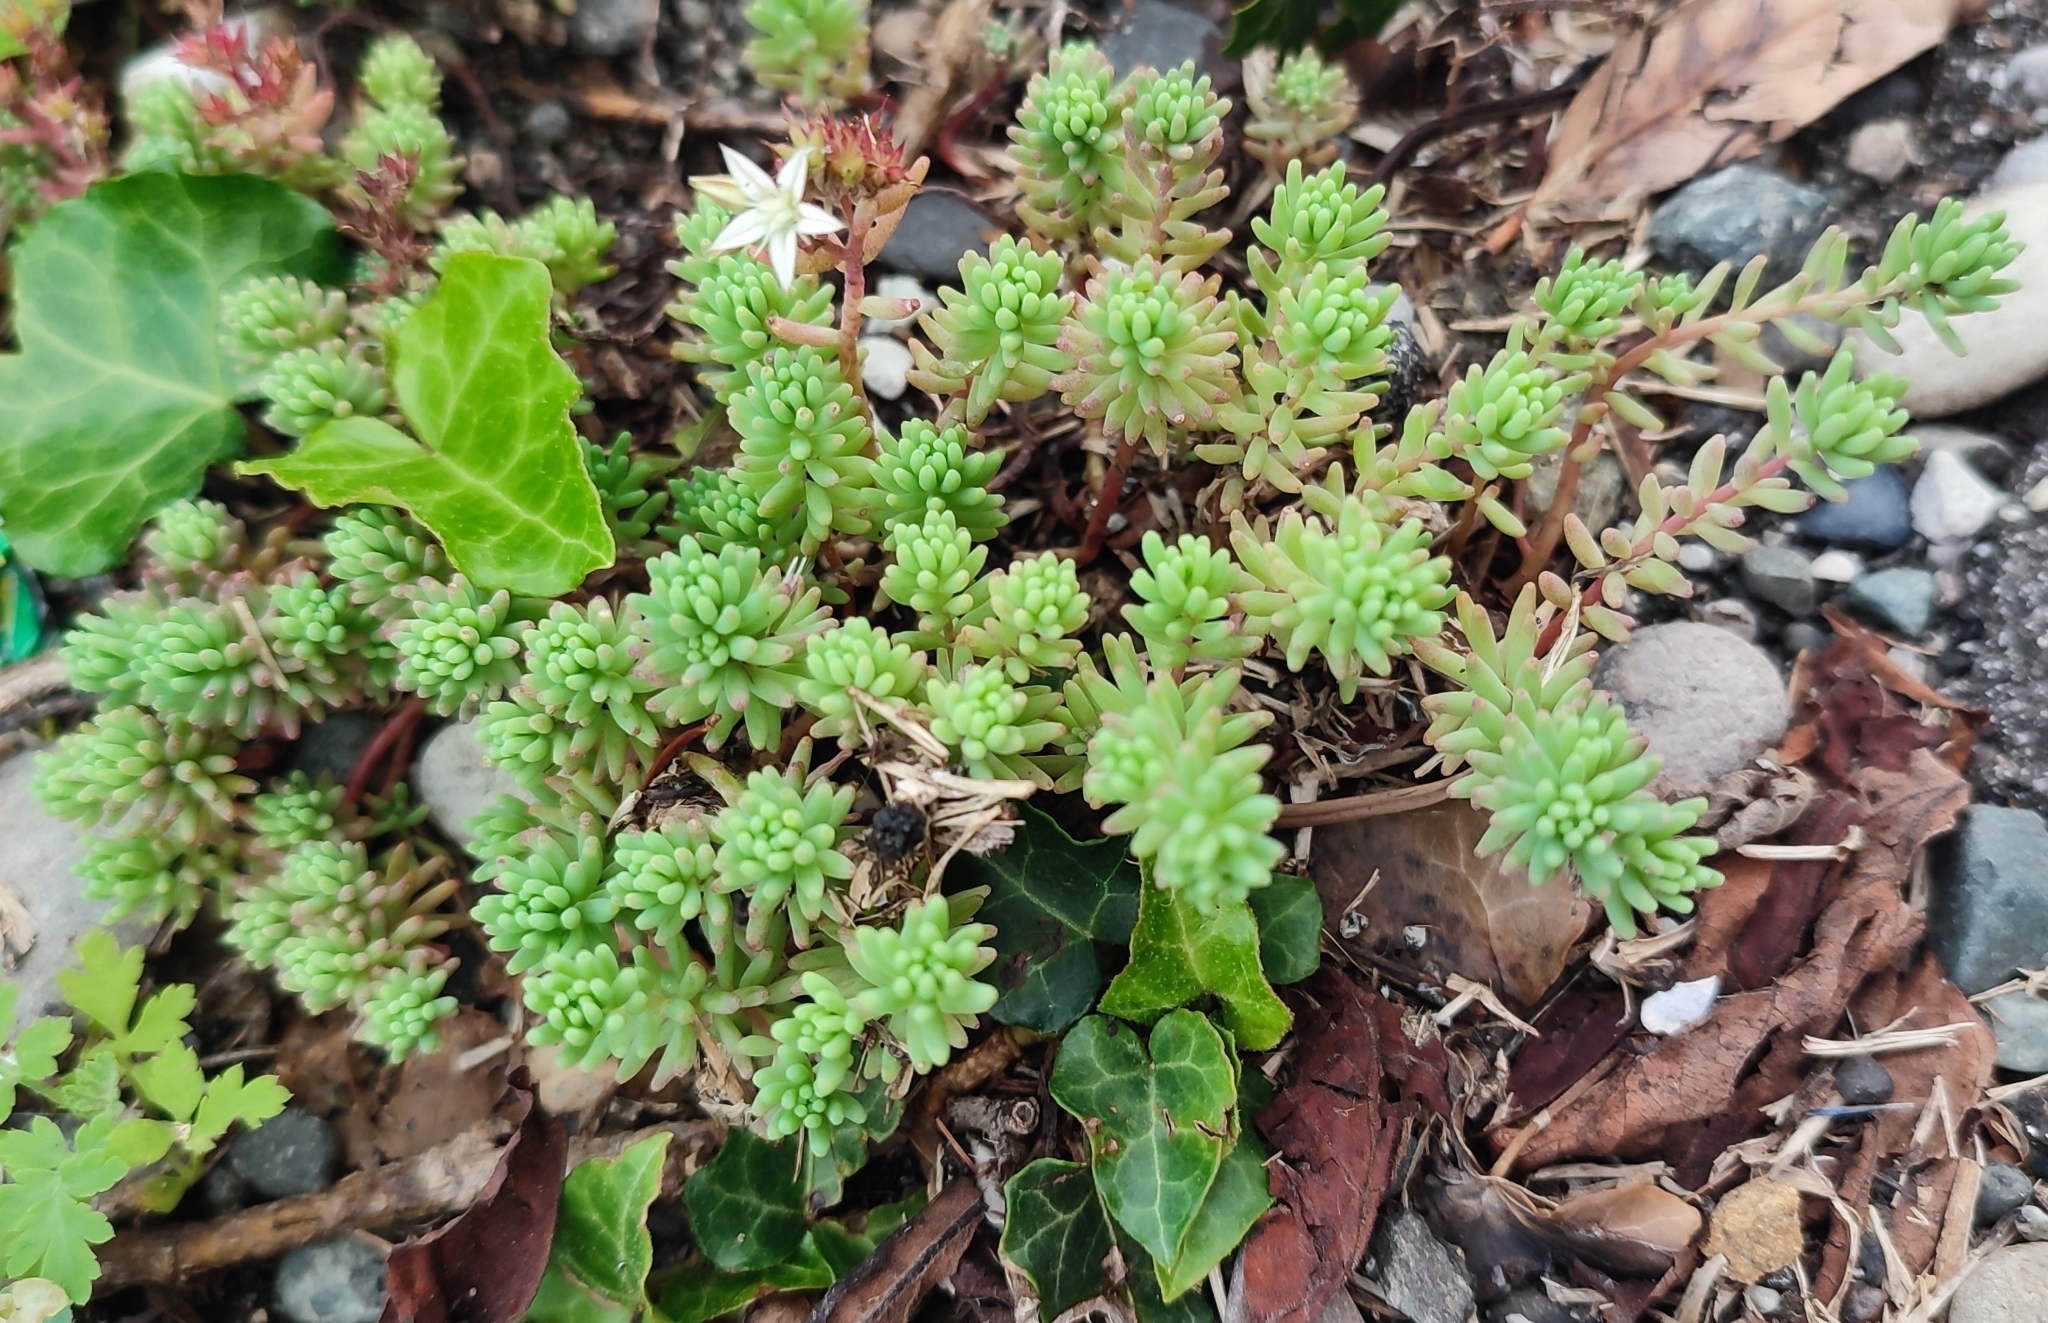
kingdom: Plantae
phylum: Tracheophyta
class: Magnoliopsida
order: Saxifragales
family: Crassulaceae
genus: Sedum
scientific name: Sedum pallidum
